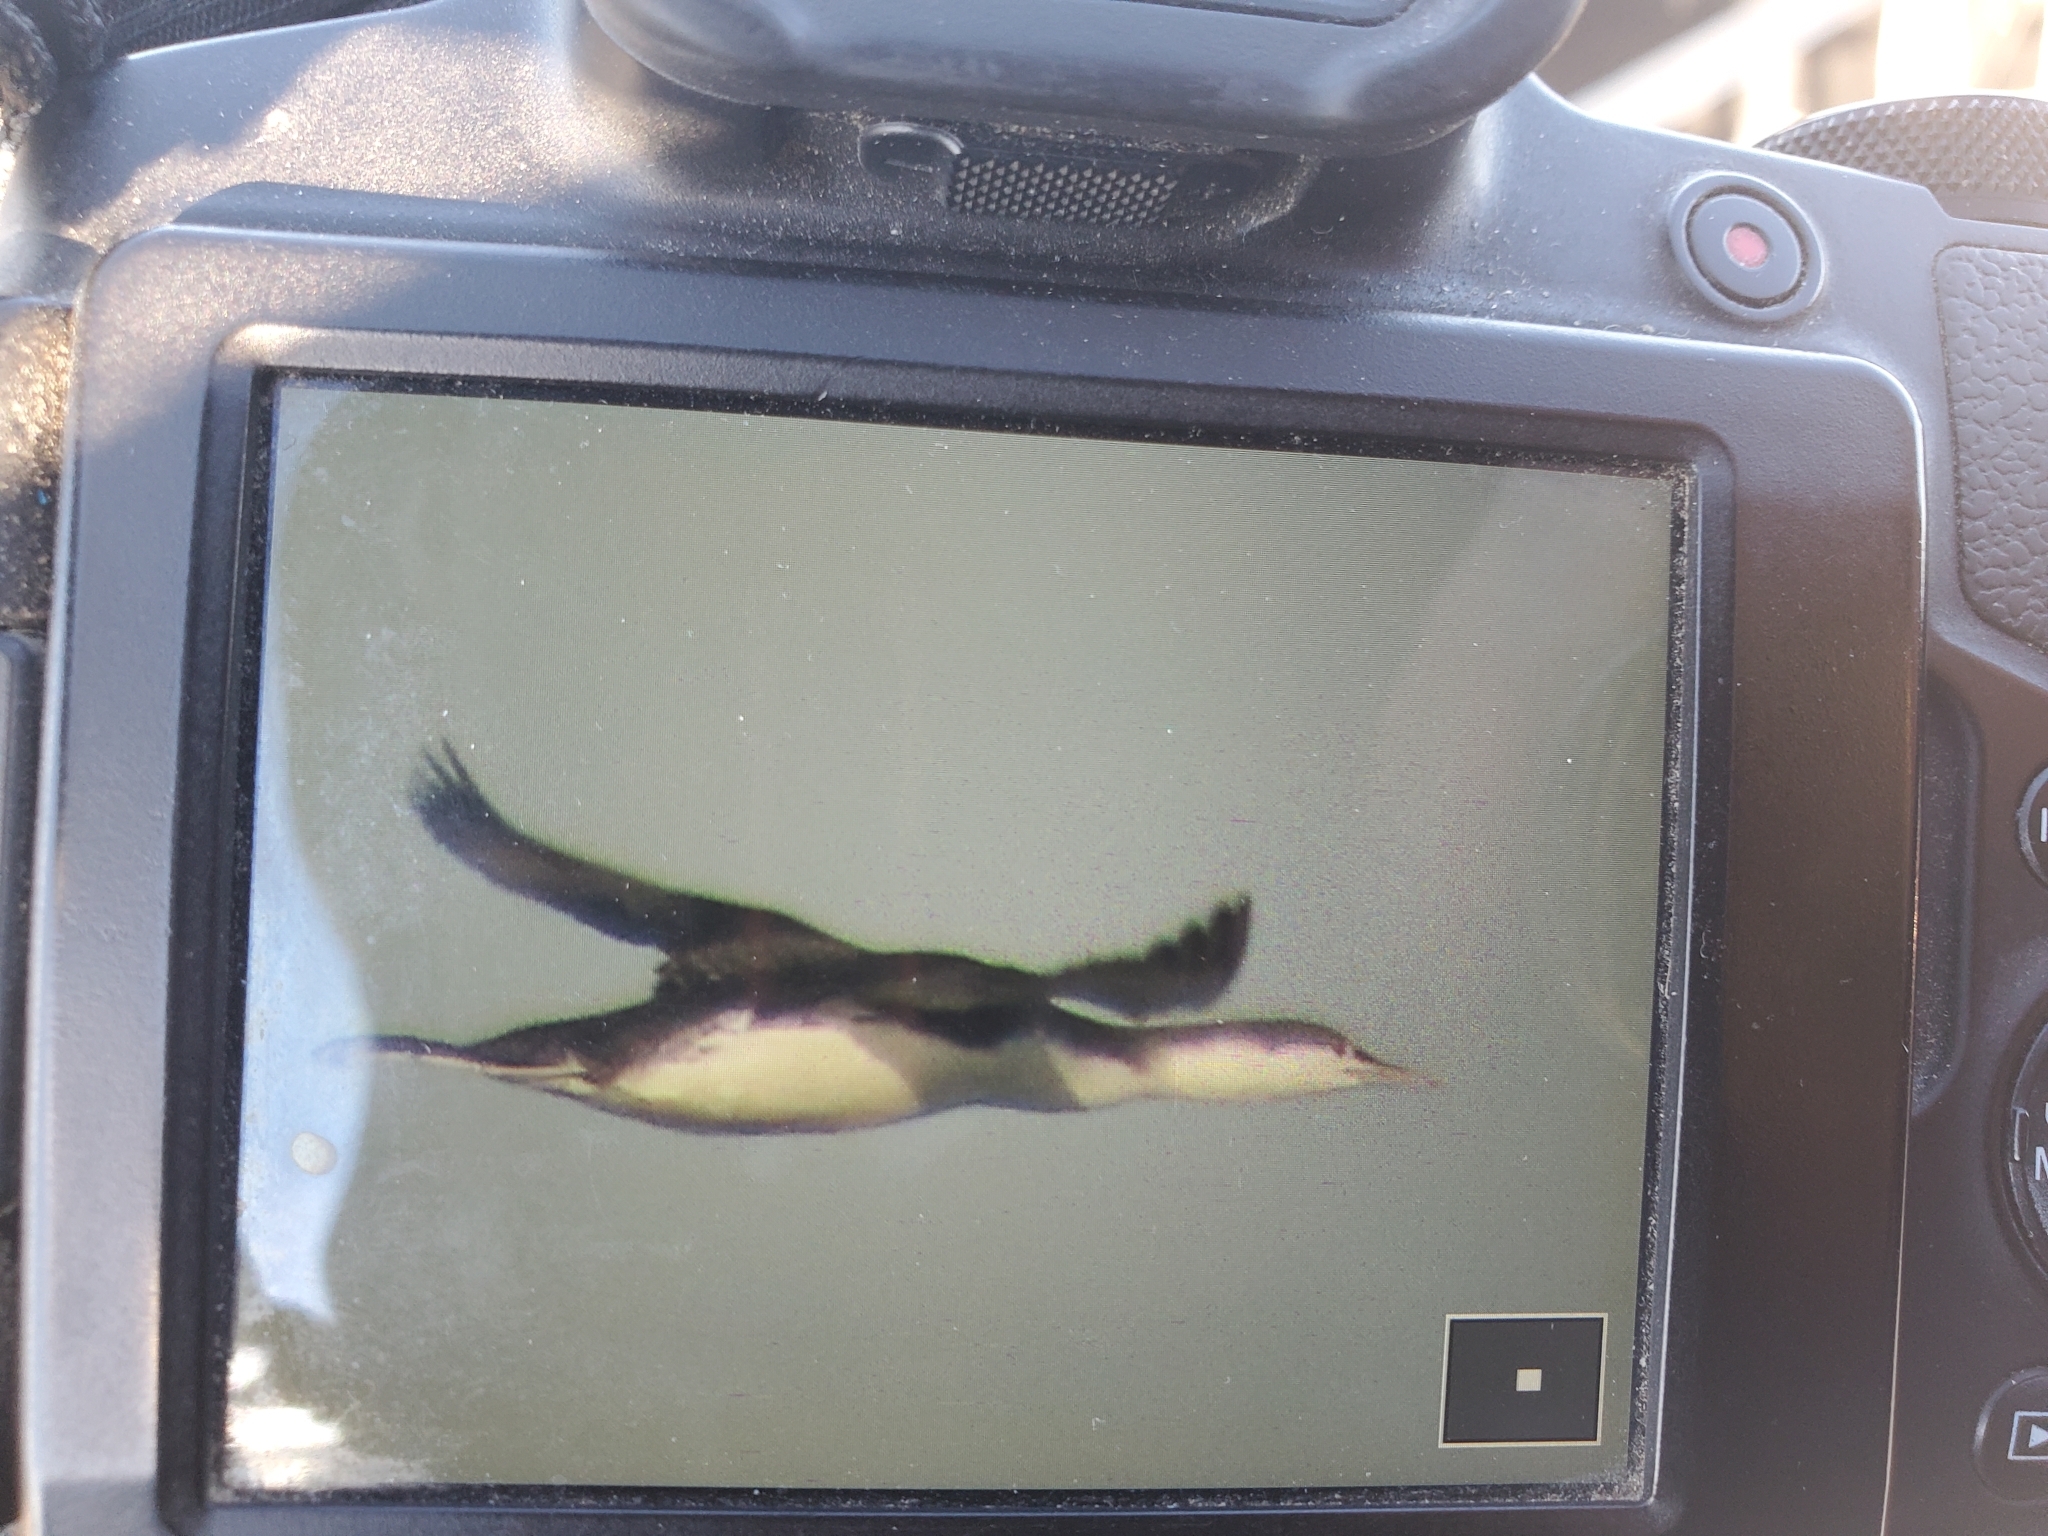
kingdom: Animalia
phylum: Chordata
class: Aves
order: Gaviiformes
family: Gaviidae
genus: Gavia
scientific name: Gavia stellata
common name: Red-throated loon
